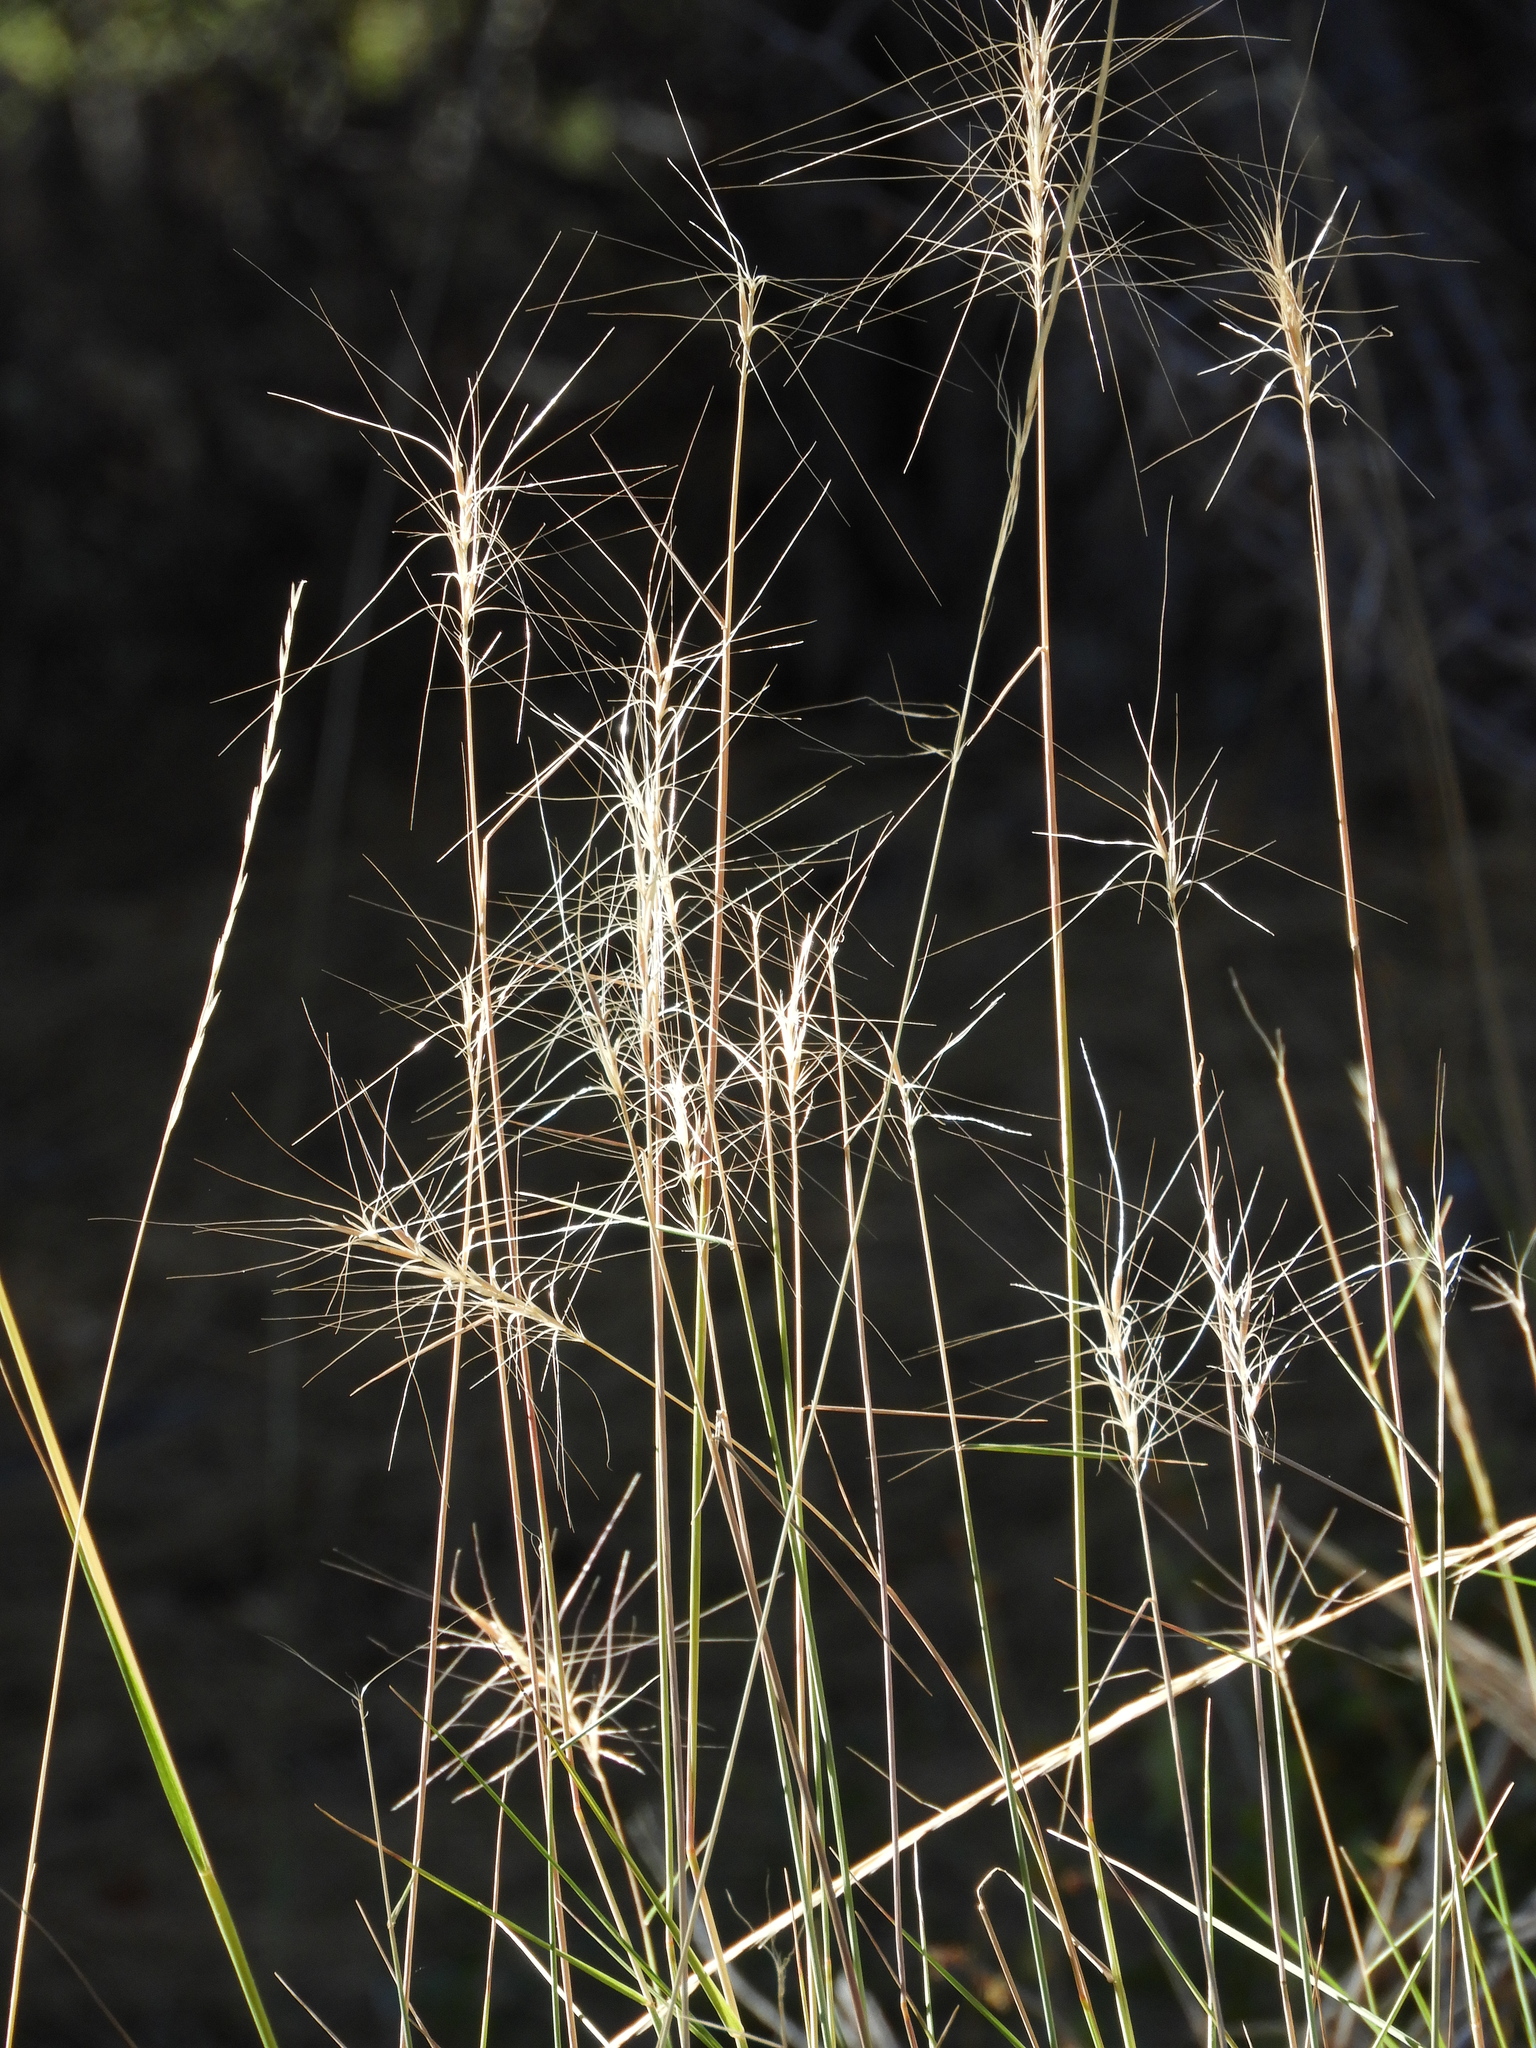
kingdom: Plantae
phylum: Tracheophyta
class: Liliopsida
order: Poales
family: Poaceae
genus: Elymus
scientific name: Elymus elymoides
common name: Bottlebrush squirreltail
